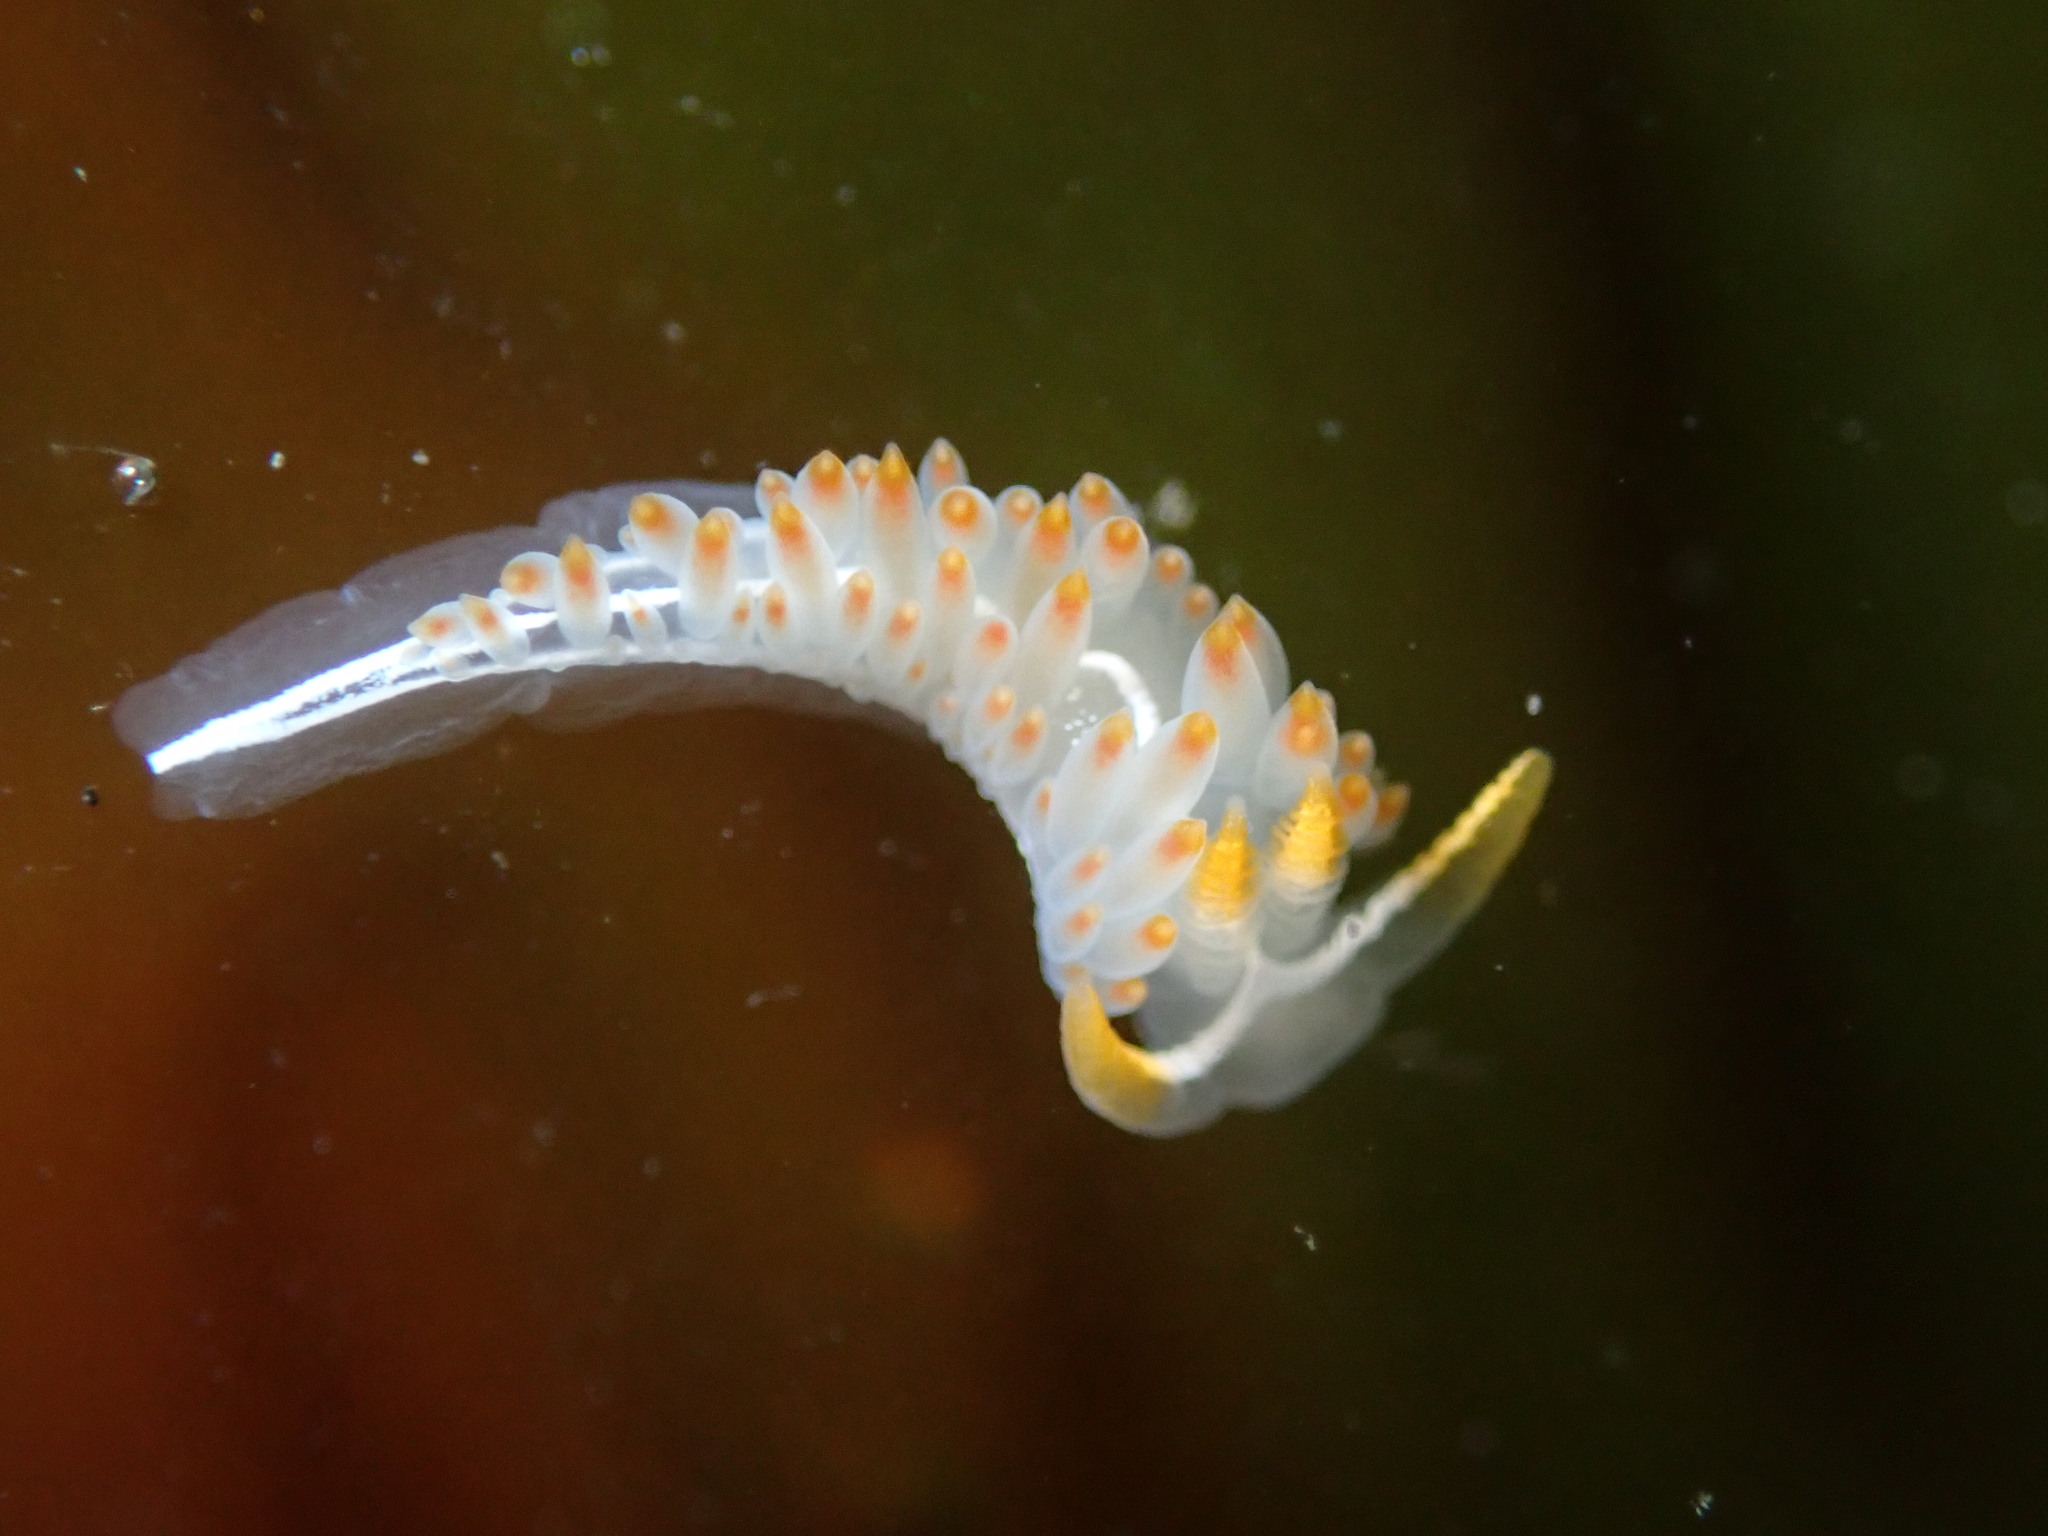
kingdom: Animalia
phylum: Mollusca
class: Gastropoda
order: Nudibranchia
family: Coryphellidae
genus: Coryphella
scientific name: Coryphella trilineata
